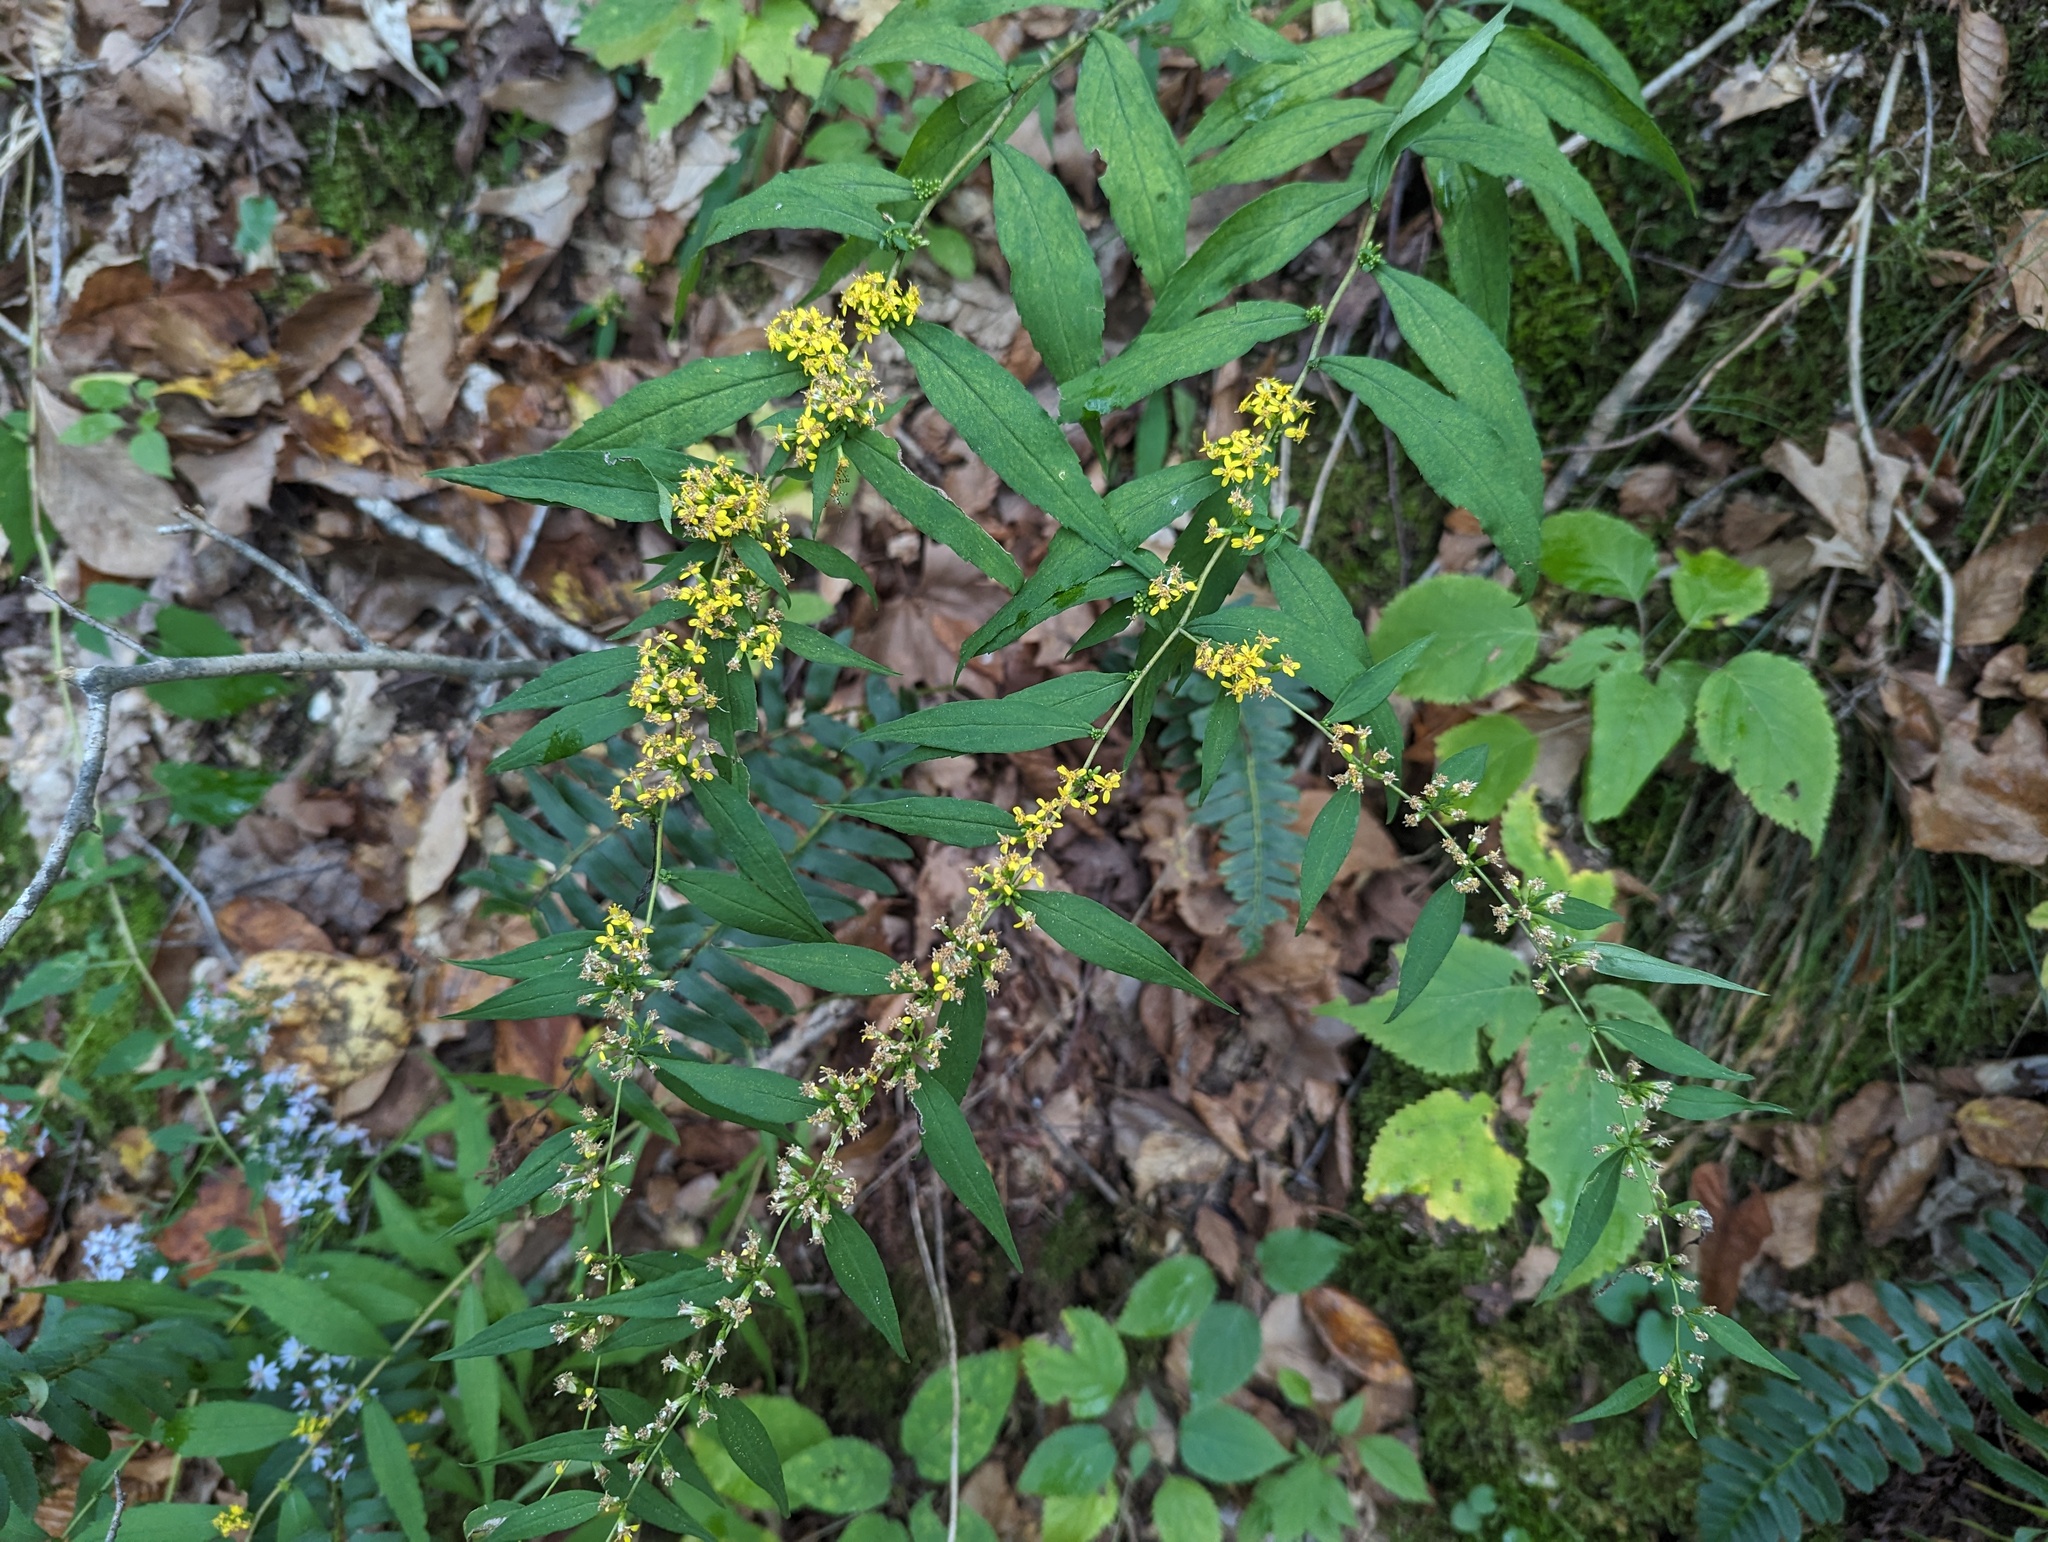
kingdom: Plantae
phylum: Tracheophyta
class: Magnoliopsida
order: Asterales
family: Asteraceae
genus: Solidago
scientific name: Solidago caesia
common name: Woodland goldenrod
